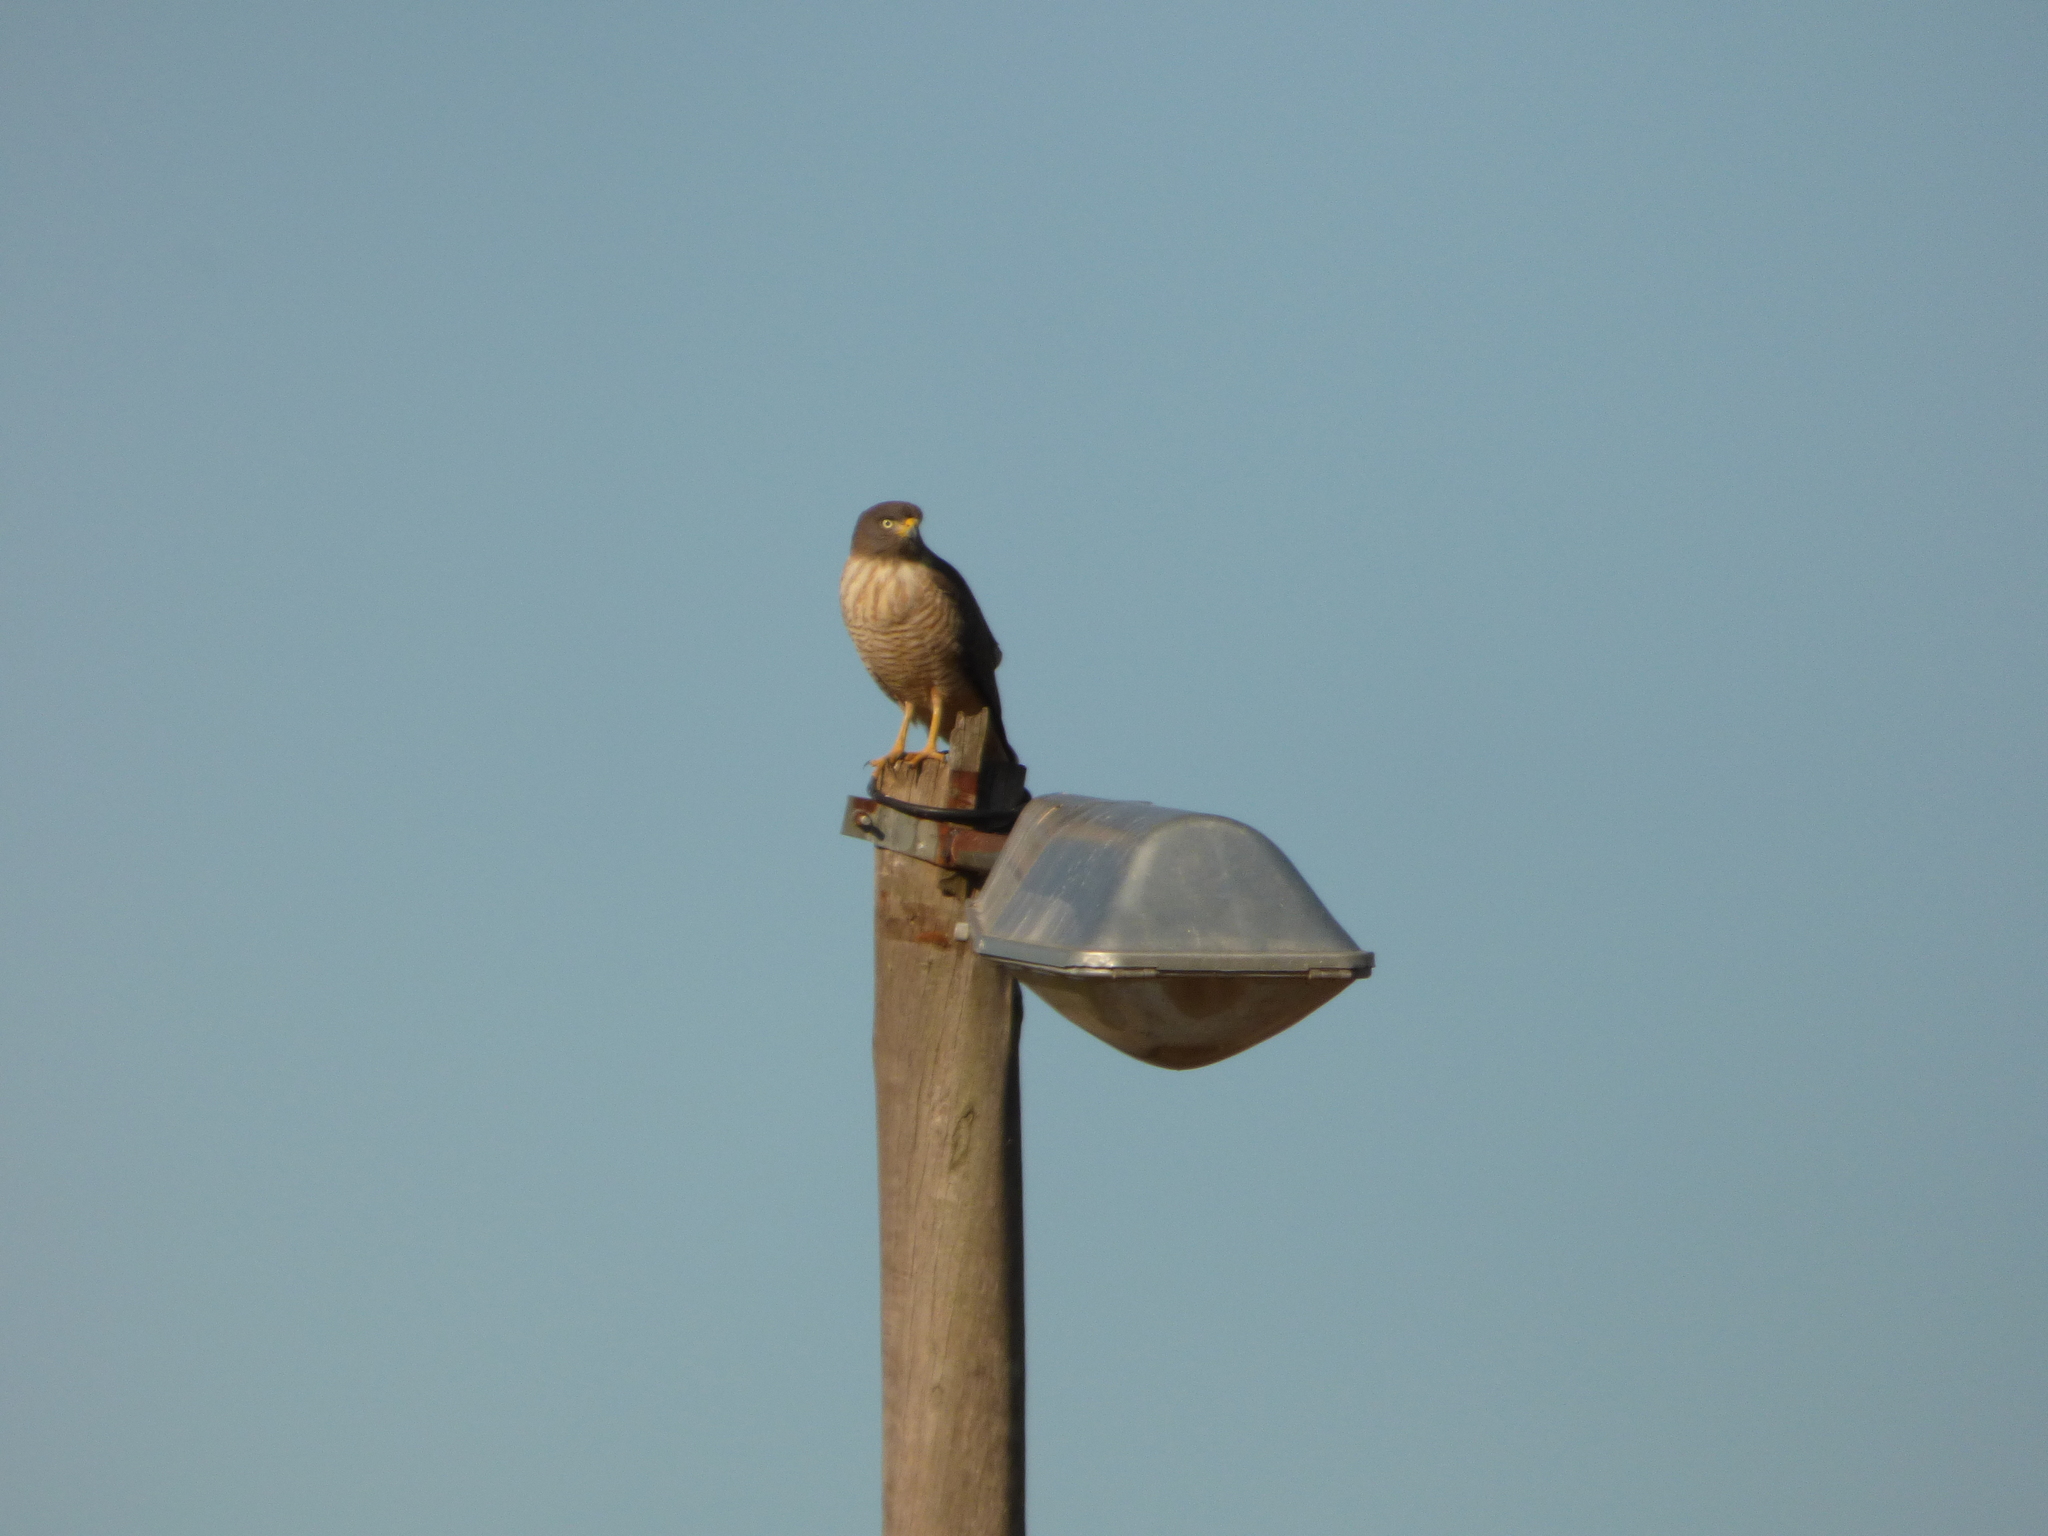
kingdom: Animalia
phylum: Chordata
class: Aves
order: Accipitriformes
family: Accipitridae
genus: Rupornis
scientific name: Rupornis magnirostris
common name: Roadside hawk
